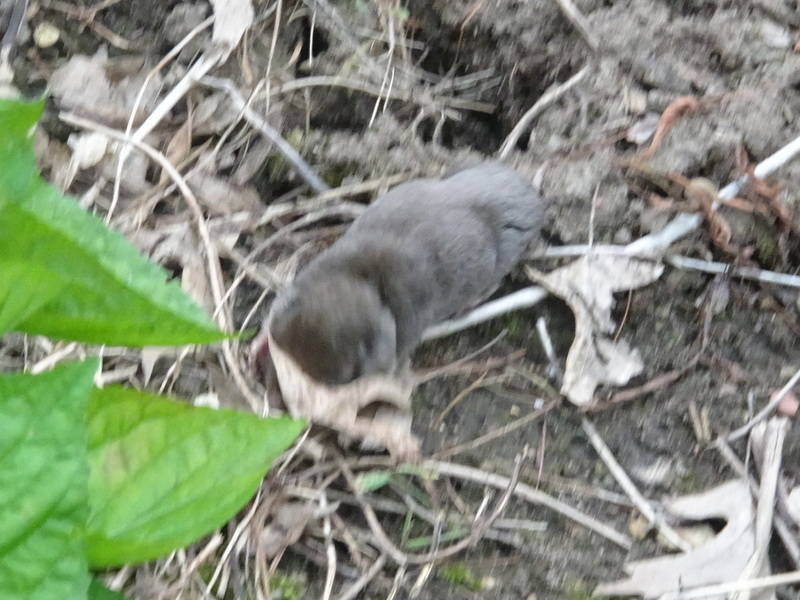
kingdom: Animalia
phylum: Chordata
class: Mammalia
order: Soricomorpha
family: Soricidae
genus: Blarina
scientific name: Blarina brevicauda
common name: Northern short-tailed shrew
